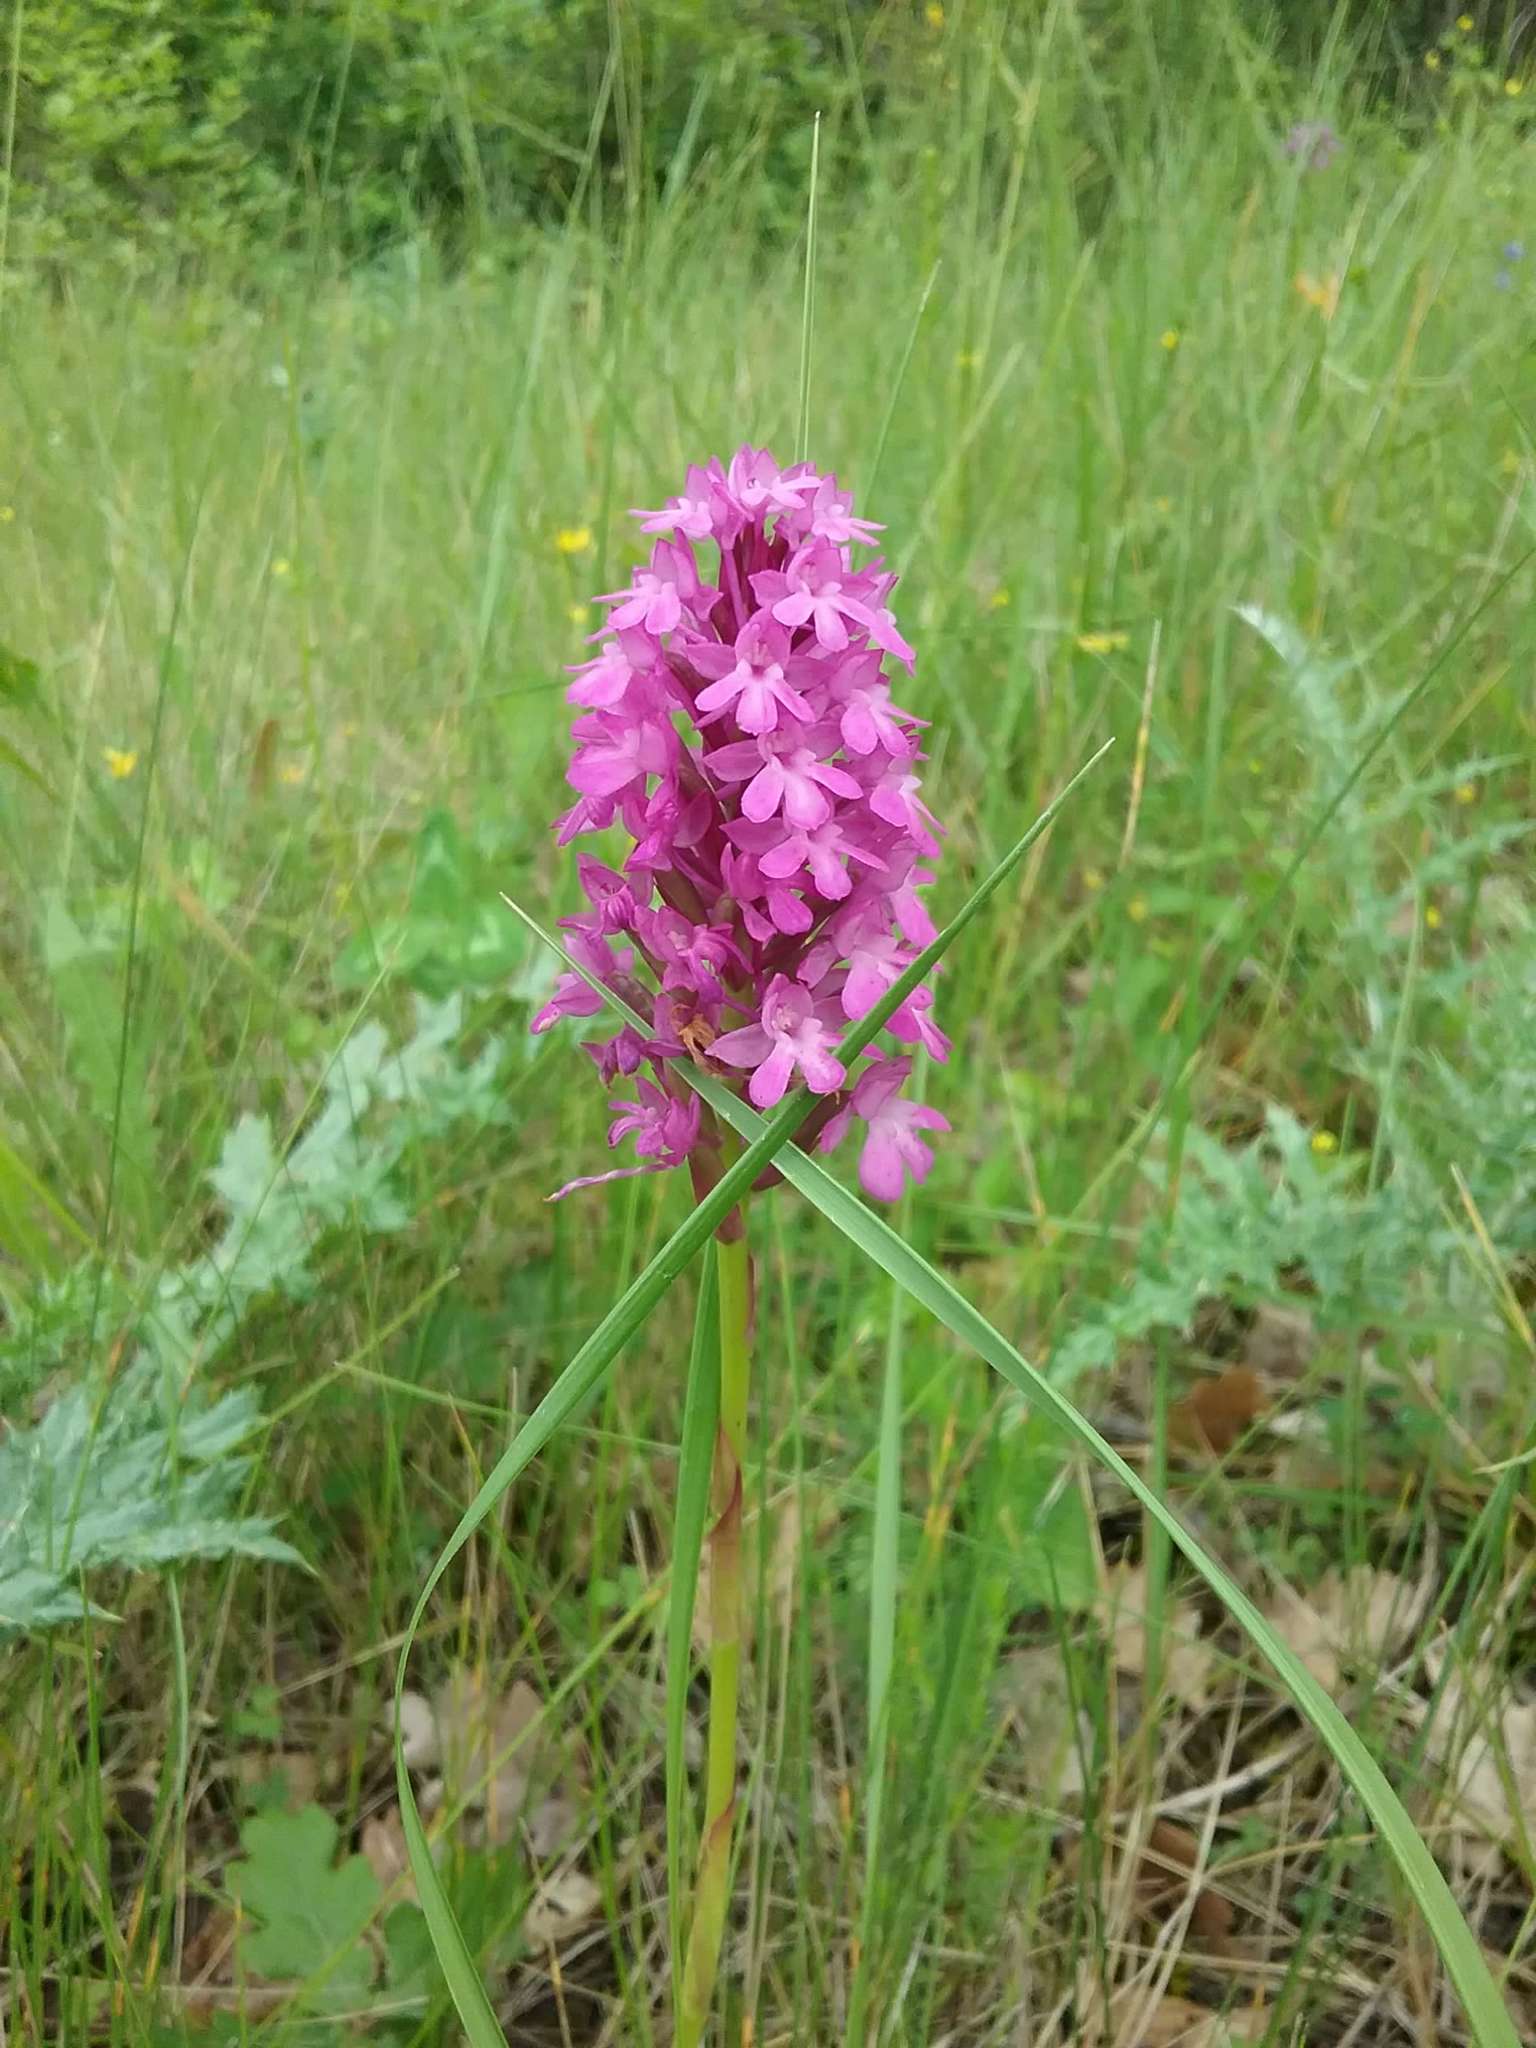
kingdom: Plantae
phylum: Tracheophyta
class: Liliopsida
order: Asparagales
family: Orchidaceae
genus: Anacamptis
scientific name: Anacamptis pyramidalis
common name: Pyramidal orchid
